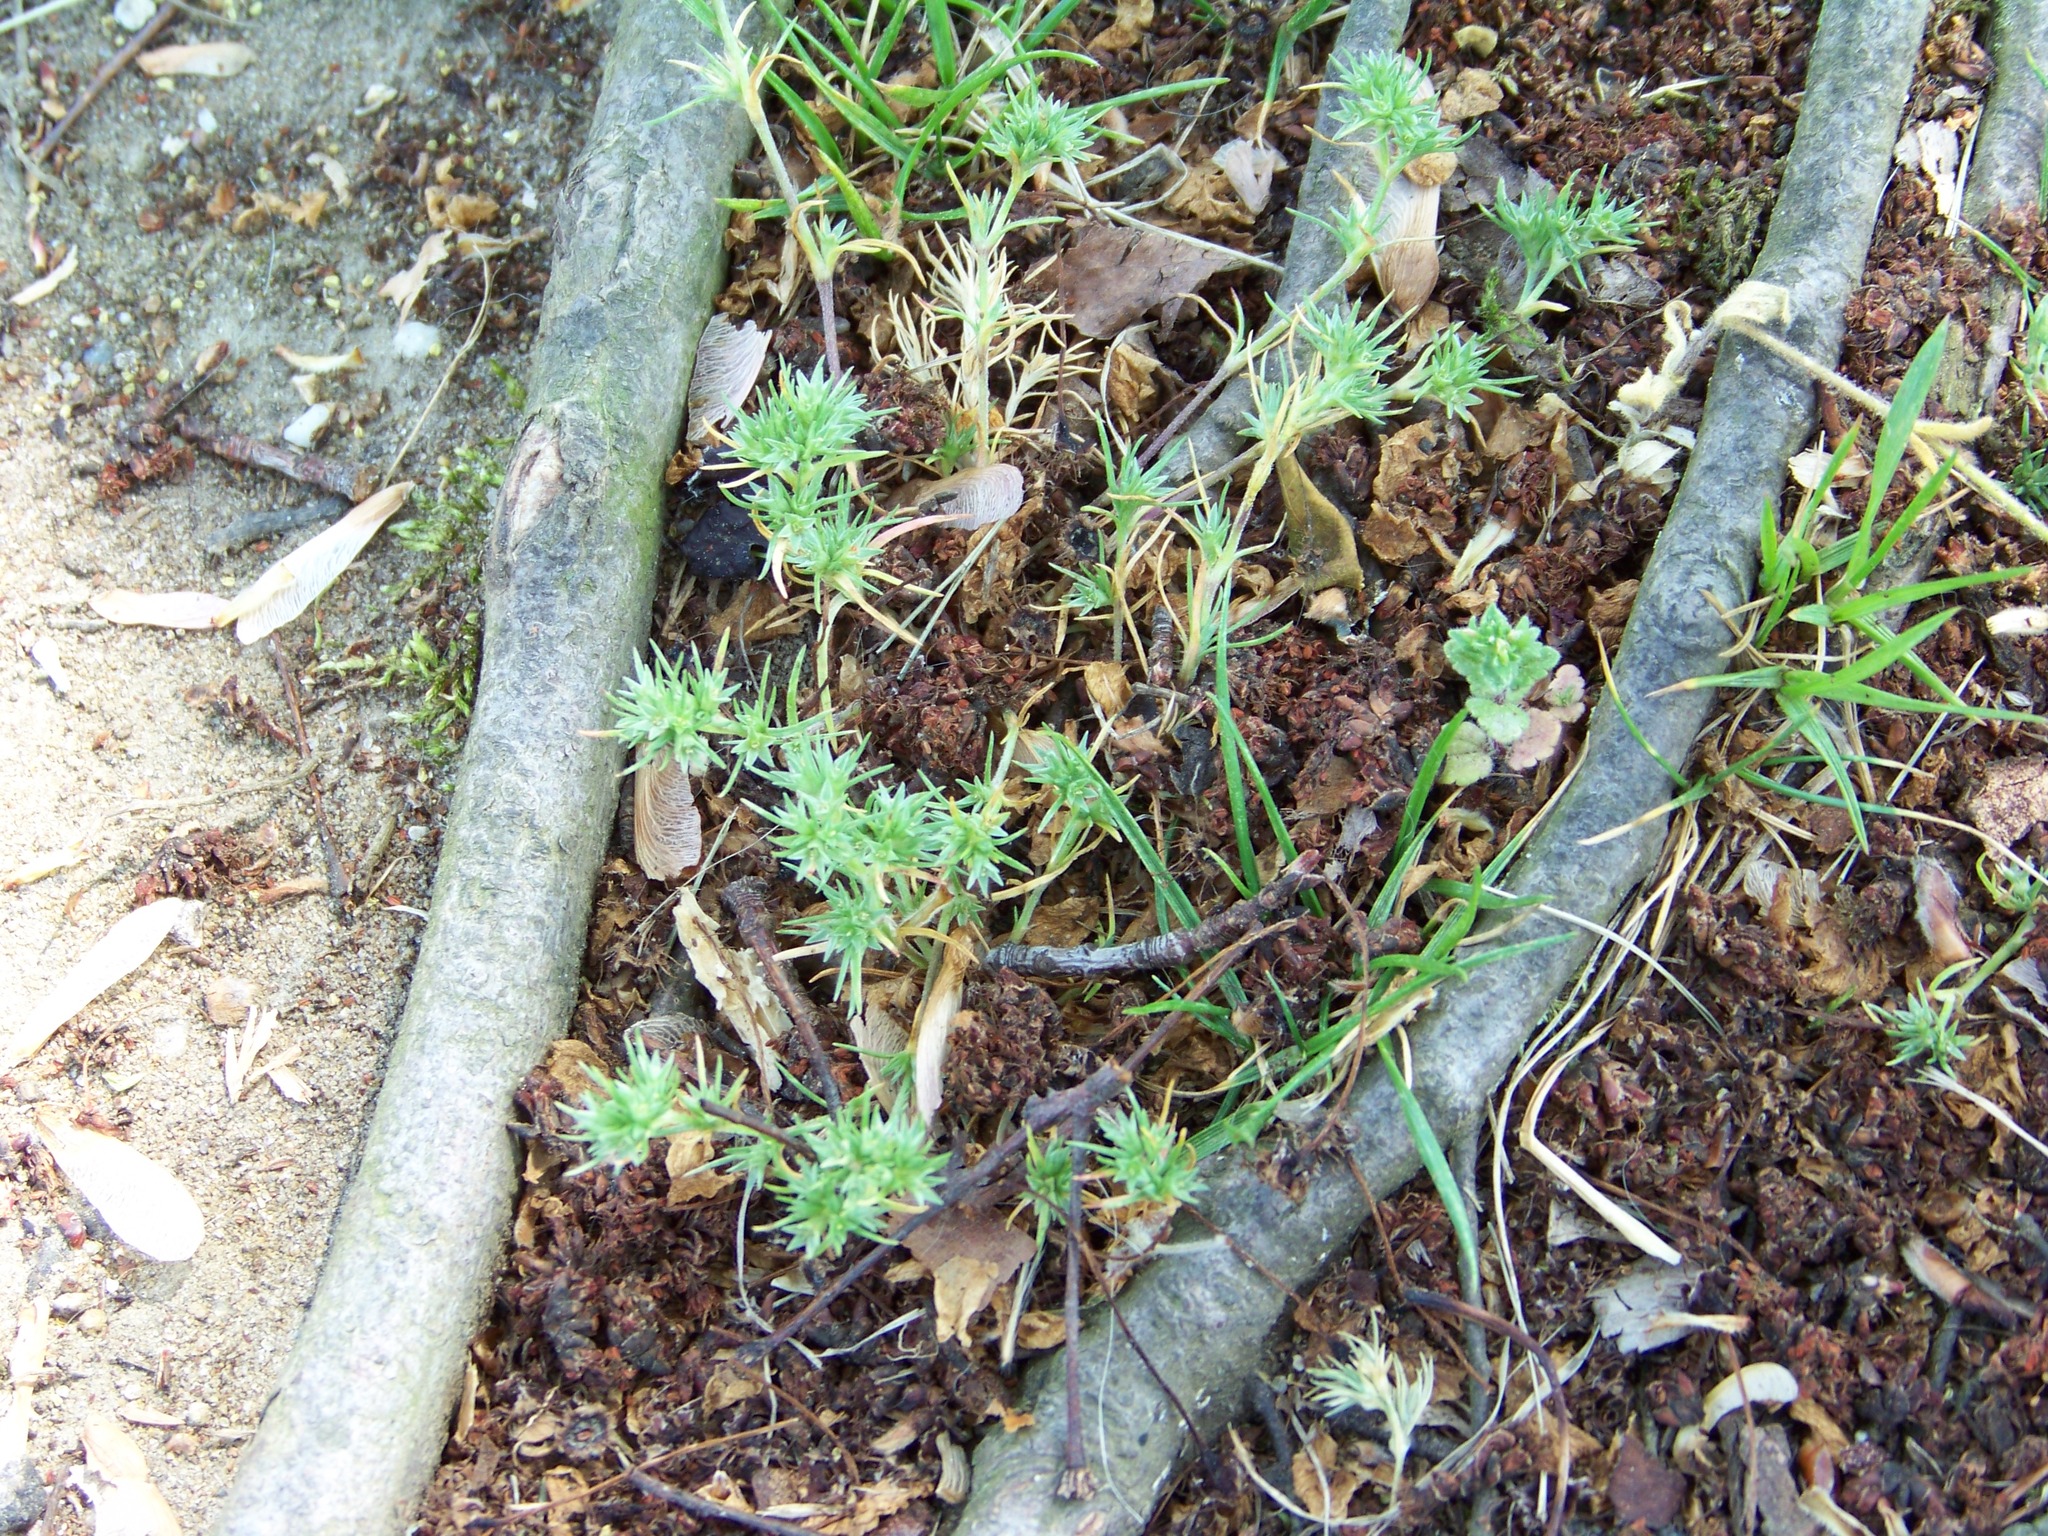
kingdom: Plantae
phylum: Tracheophyta
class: Magnoliopsida
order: Caryophyllales
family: Caryophyllaceae
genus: Scleranthus
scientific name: Scleranthus annuus
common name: Annual knawel
